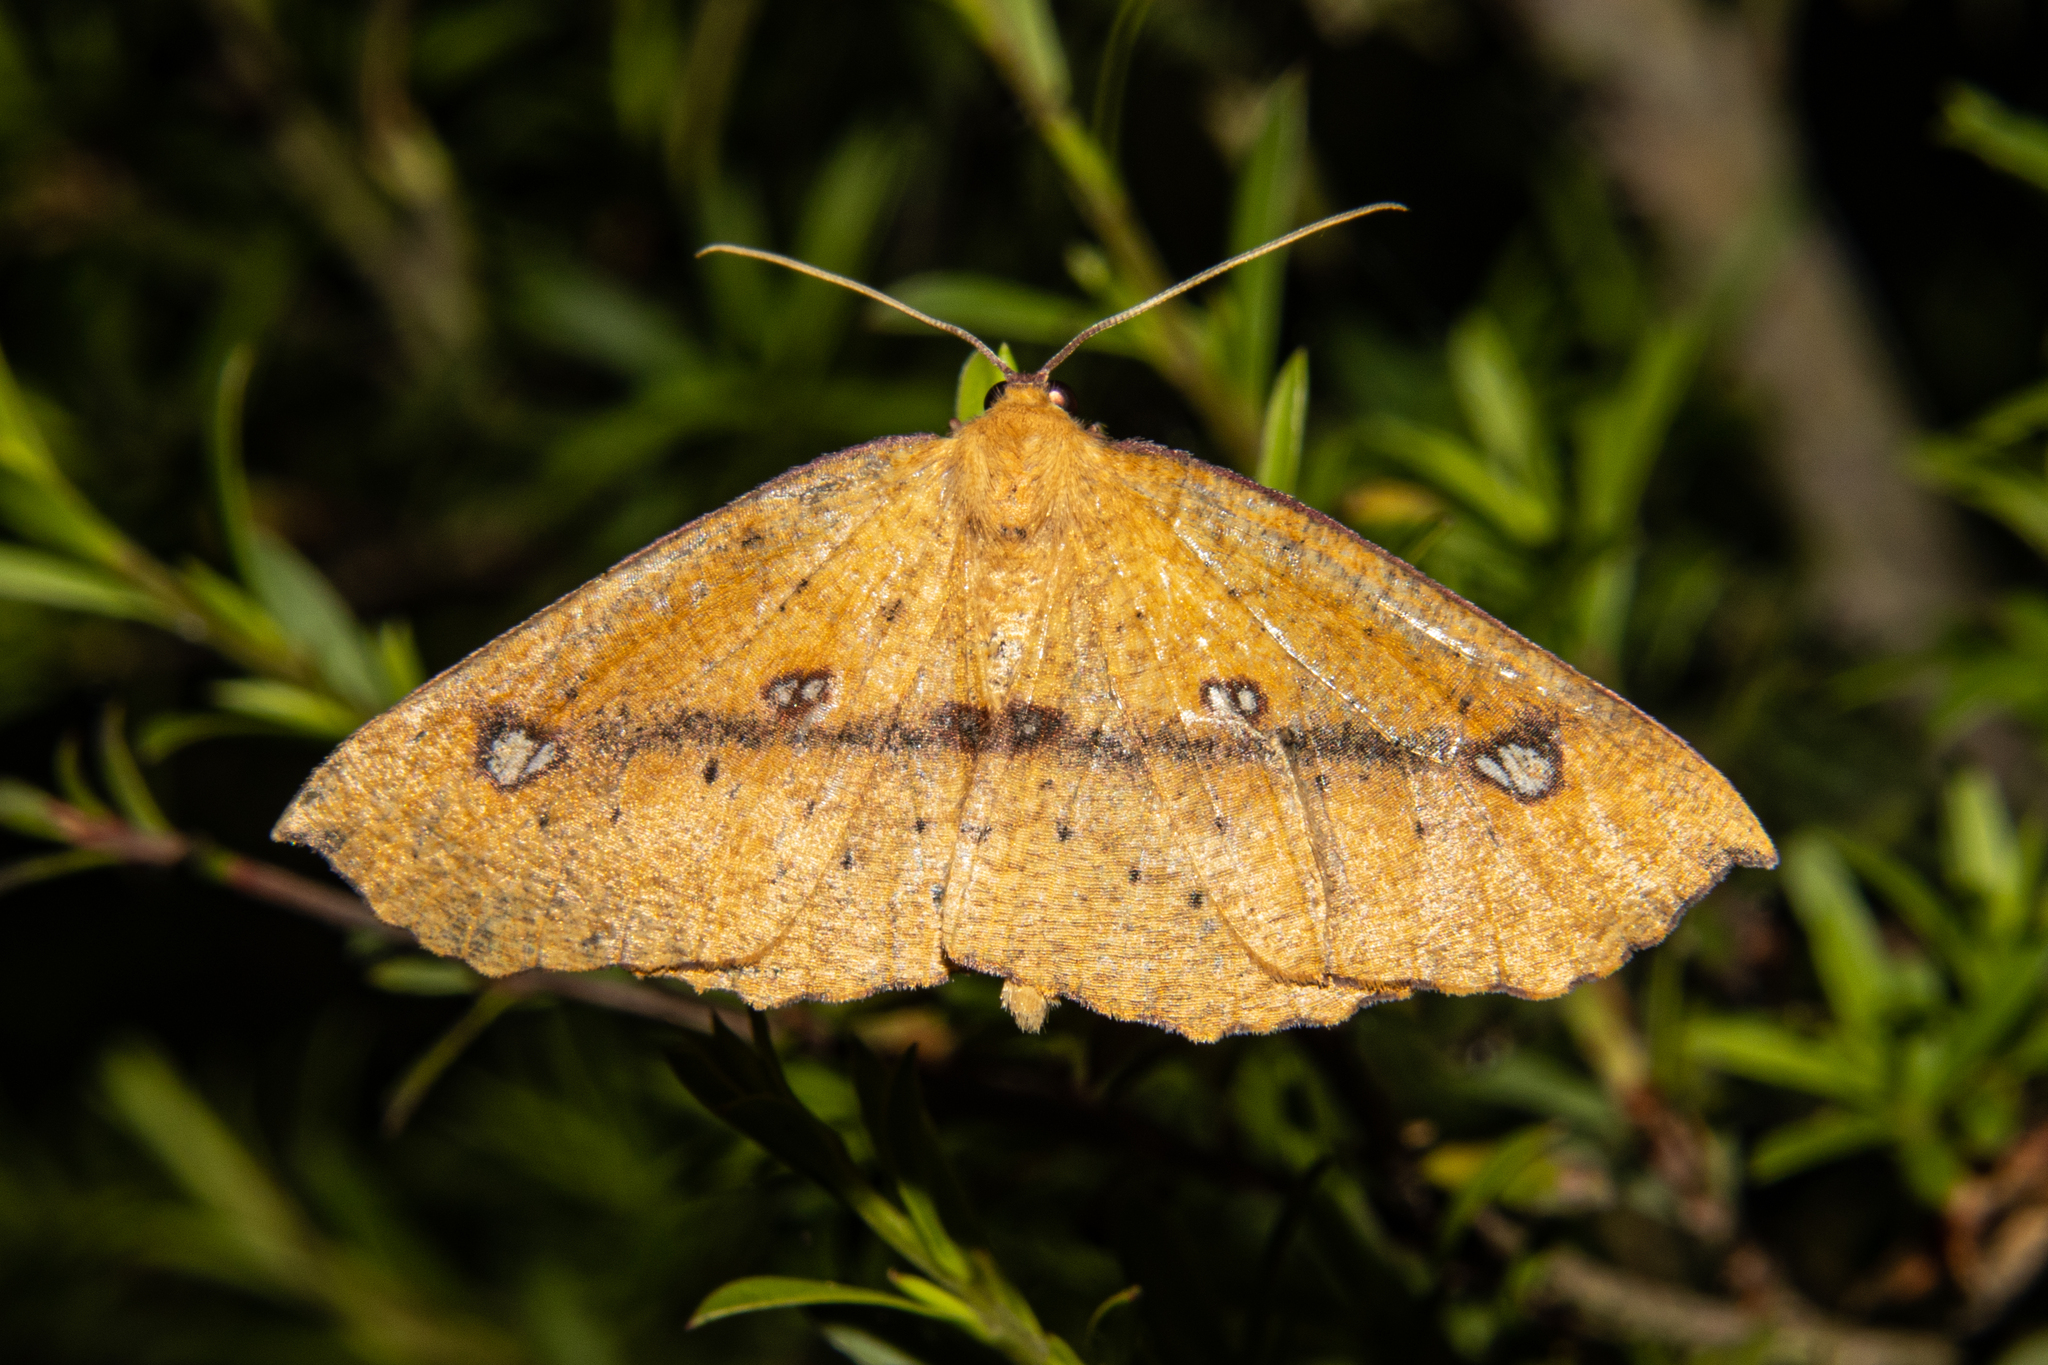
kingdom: Animalia
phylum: Arthropoda
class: Insecta
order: Lepidoptera
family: Geometridae
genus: Xyridacma
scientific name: Xyridacma alectoraria
